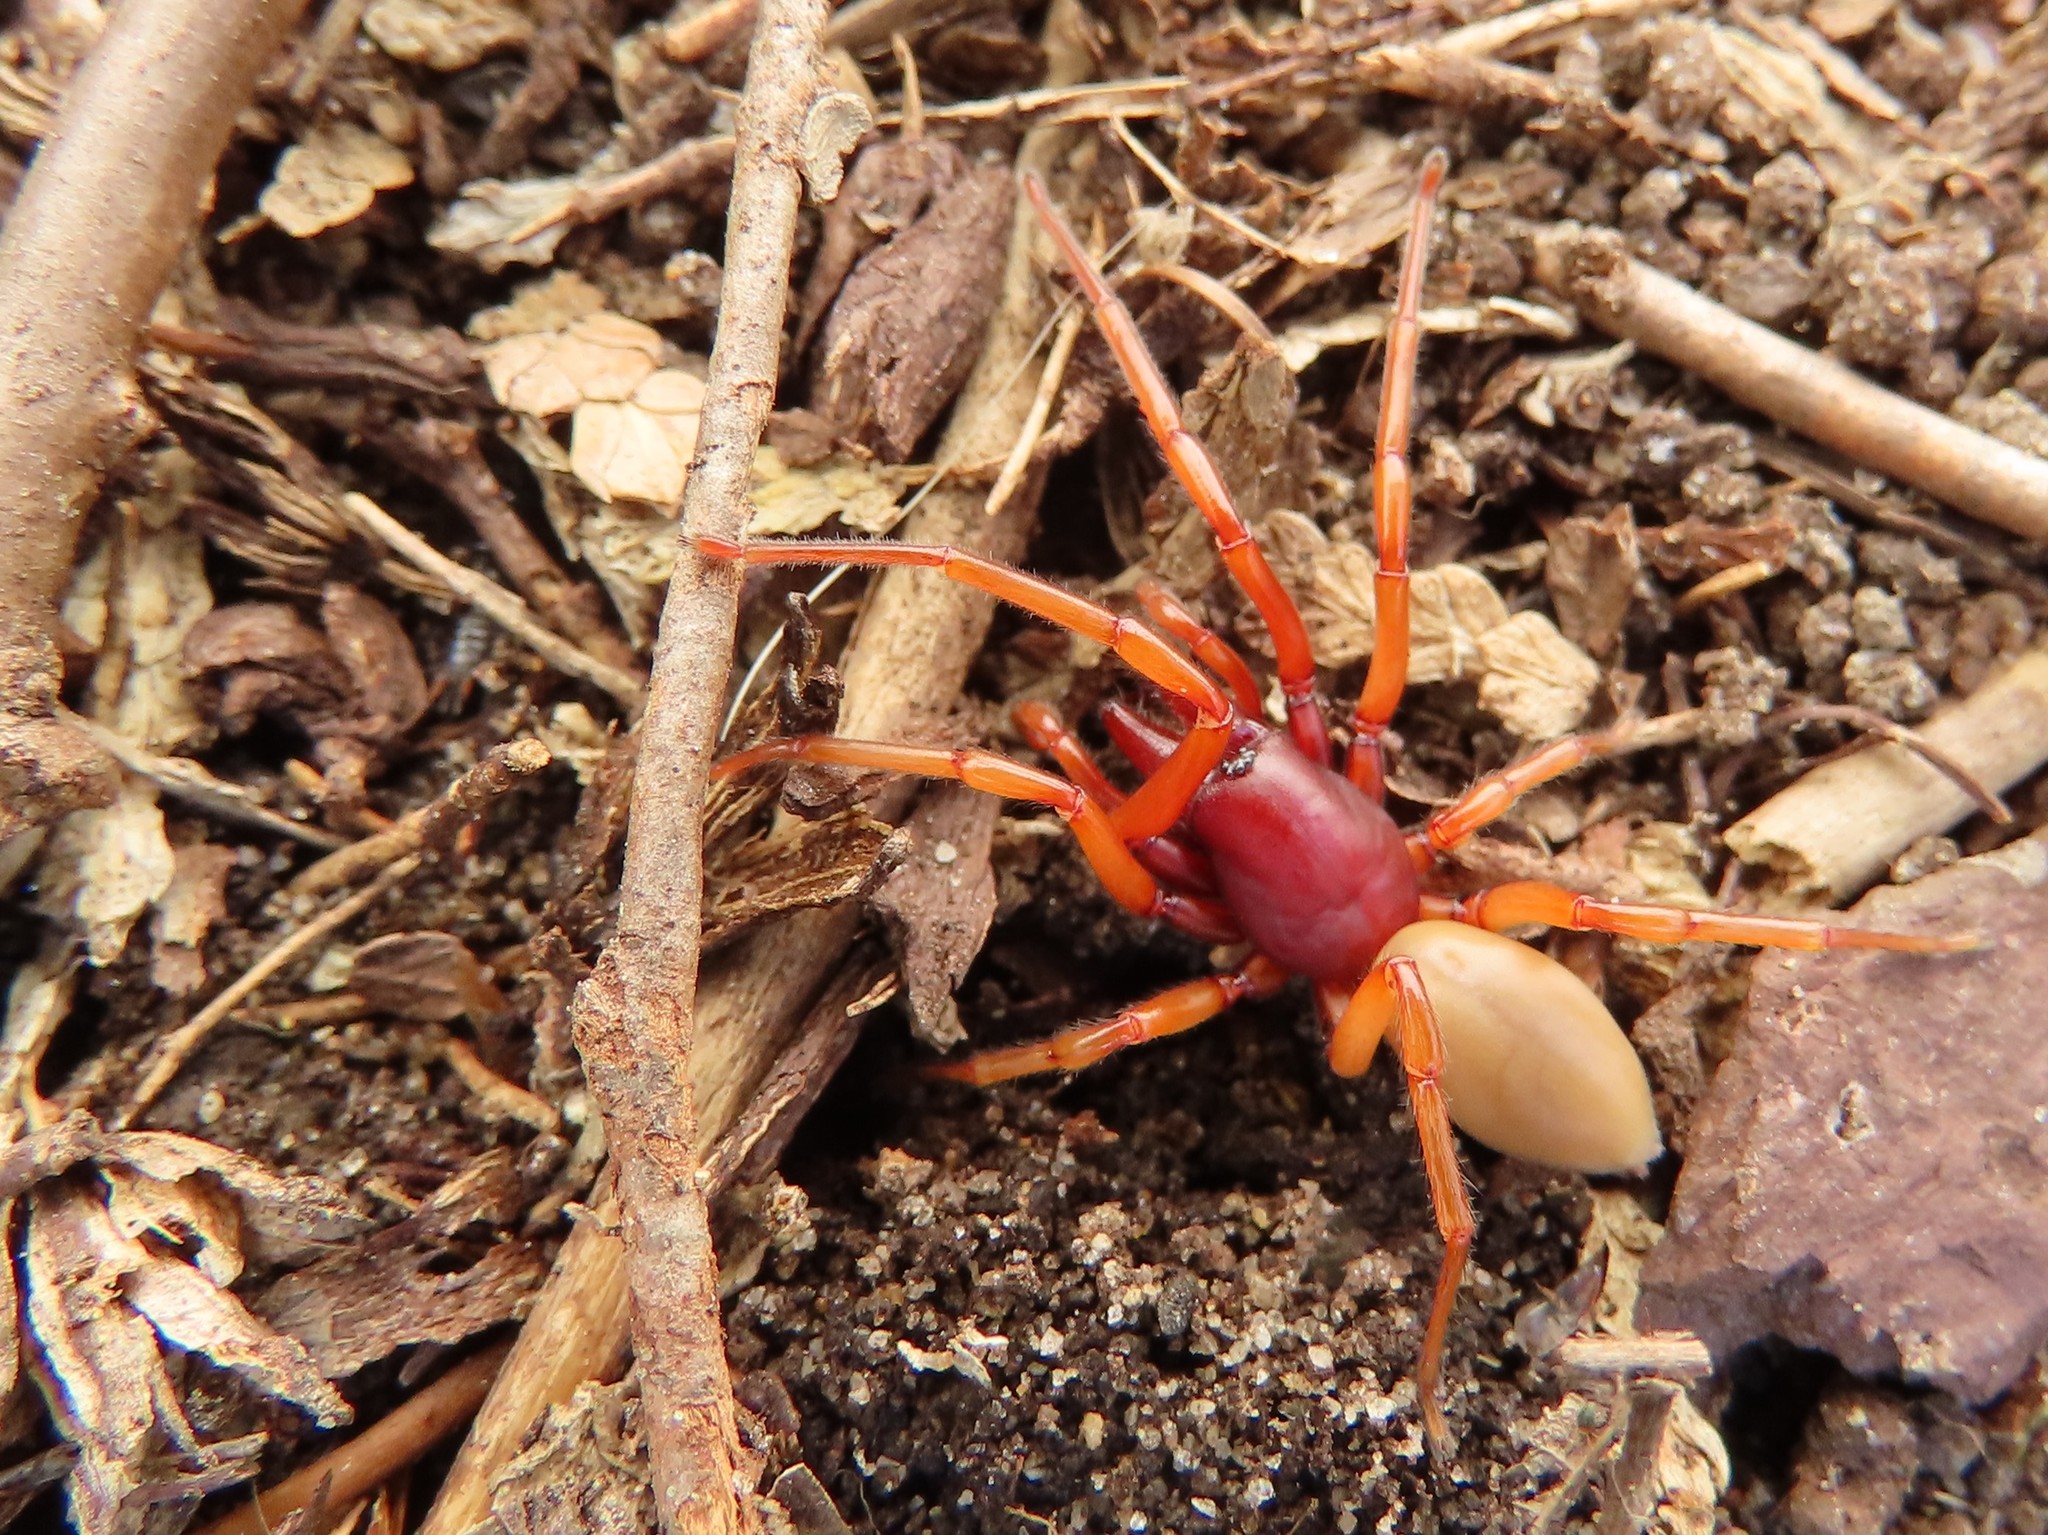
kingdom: Animalia
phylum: Arthropoda
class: Arachnida
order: Araneae
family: Dysderidae
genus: Dysdera
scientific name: Dysdera crocata
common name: Woodlouse spider
